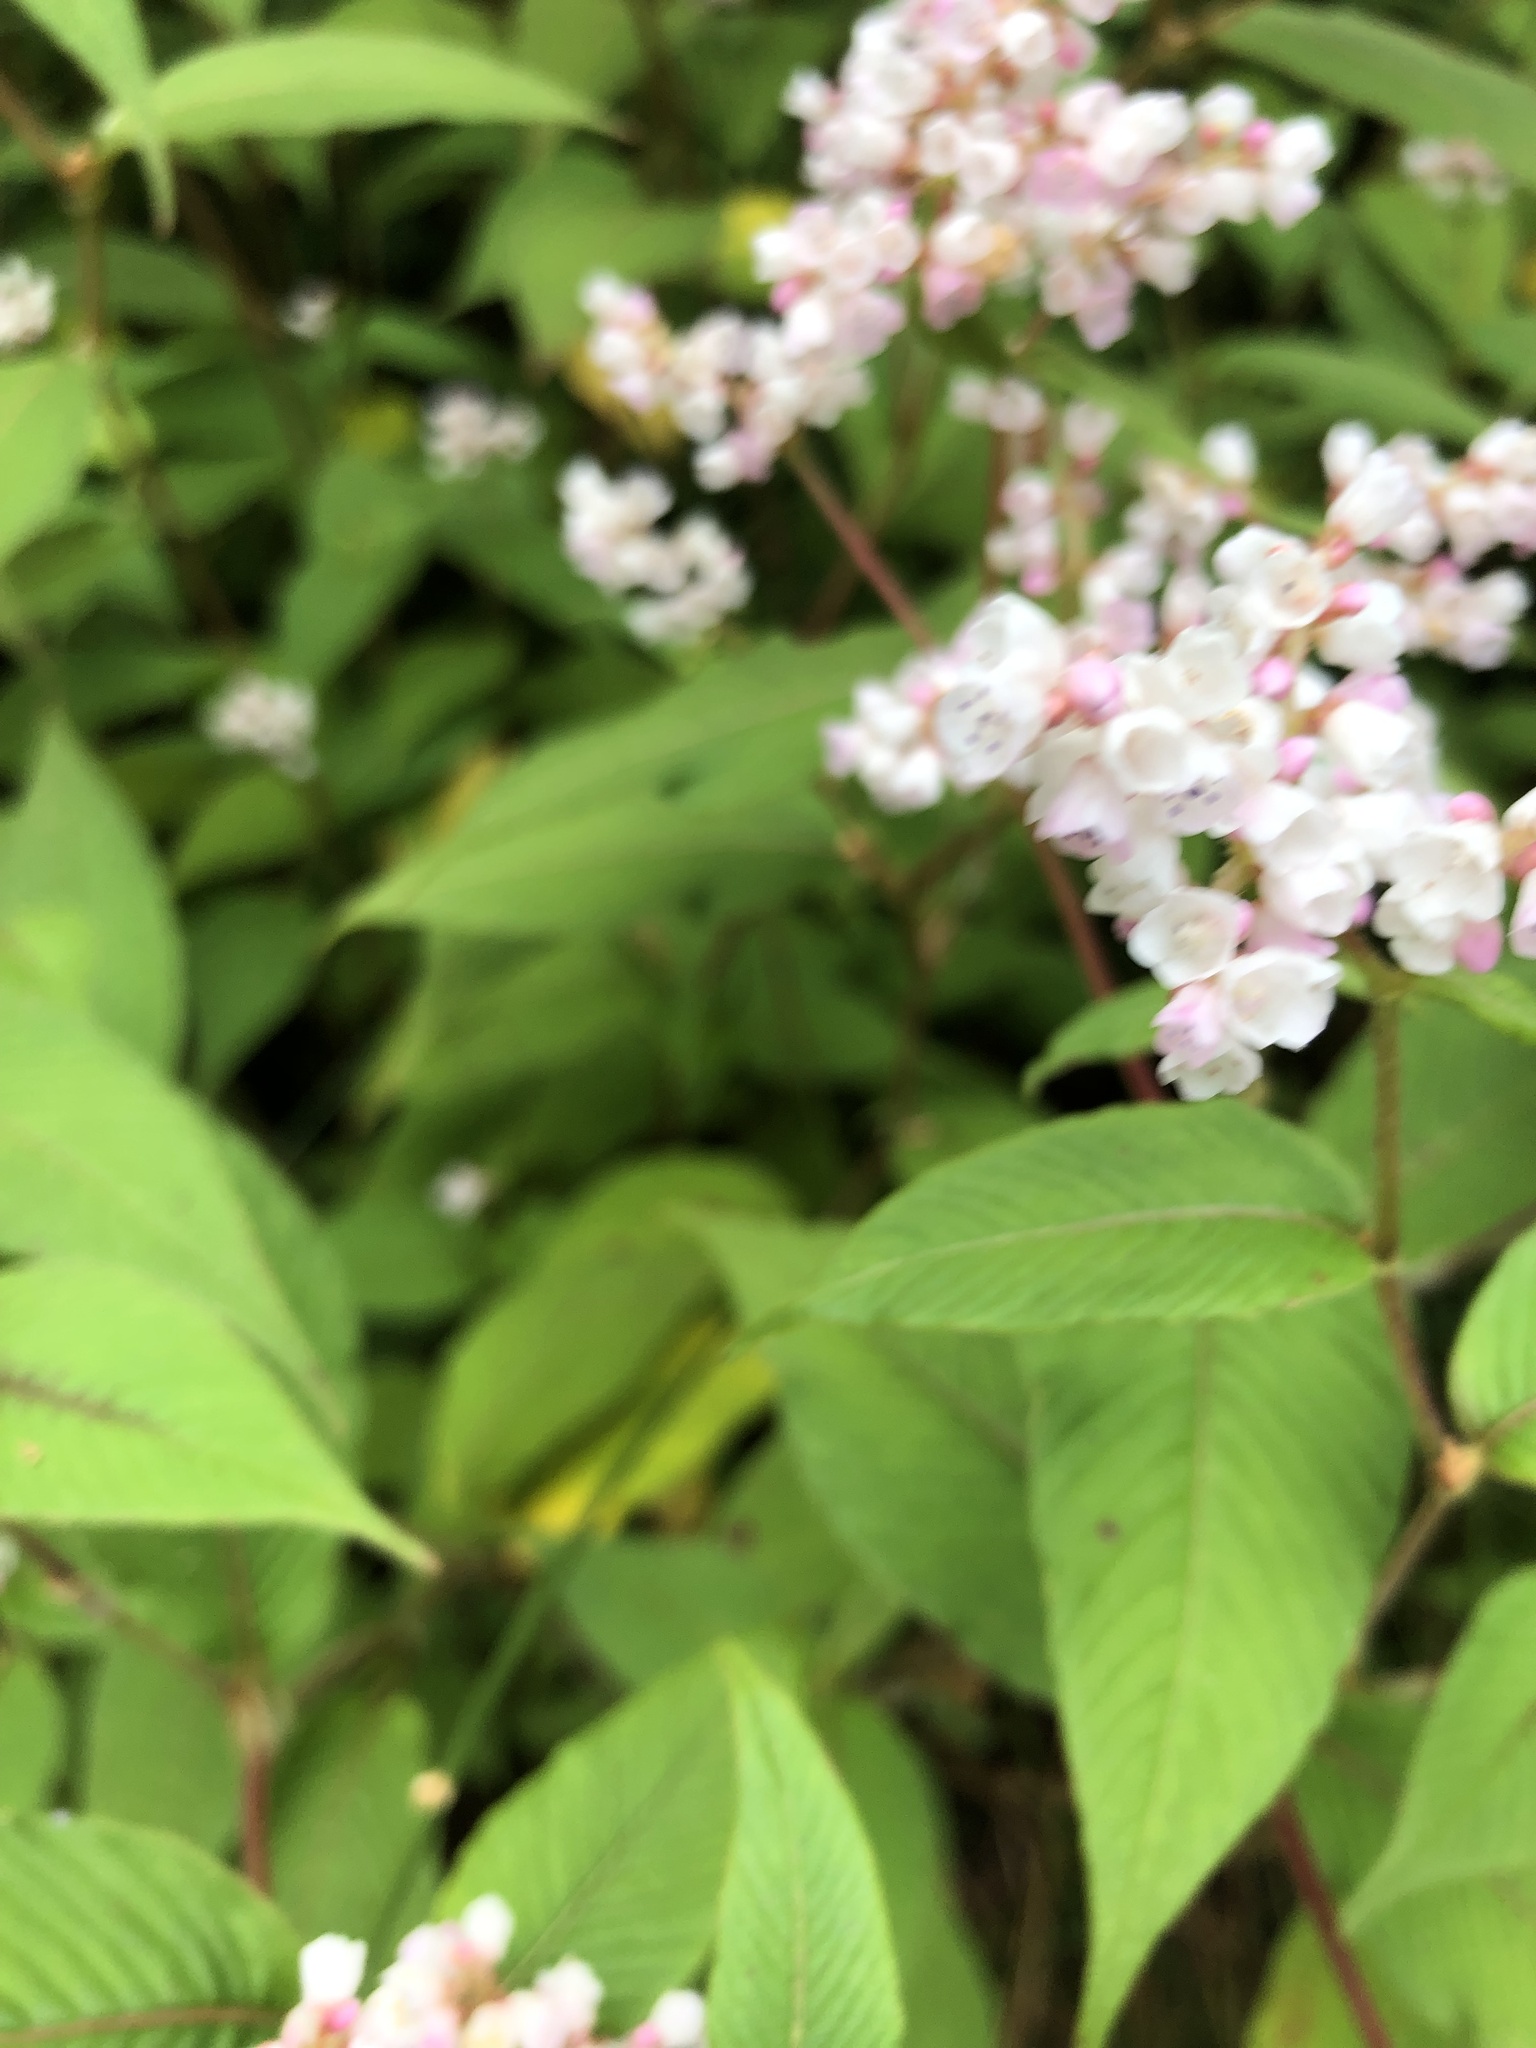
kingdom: Plantae
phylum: Tracheophyta
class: Magnoliopsida
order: Caryophyllales
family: Polygonaceae
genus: Koenigia
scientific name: Koenigia campanulata
